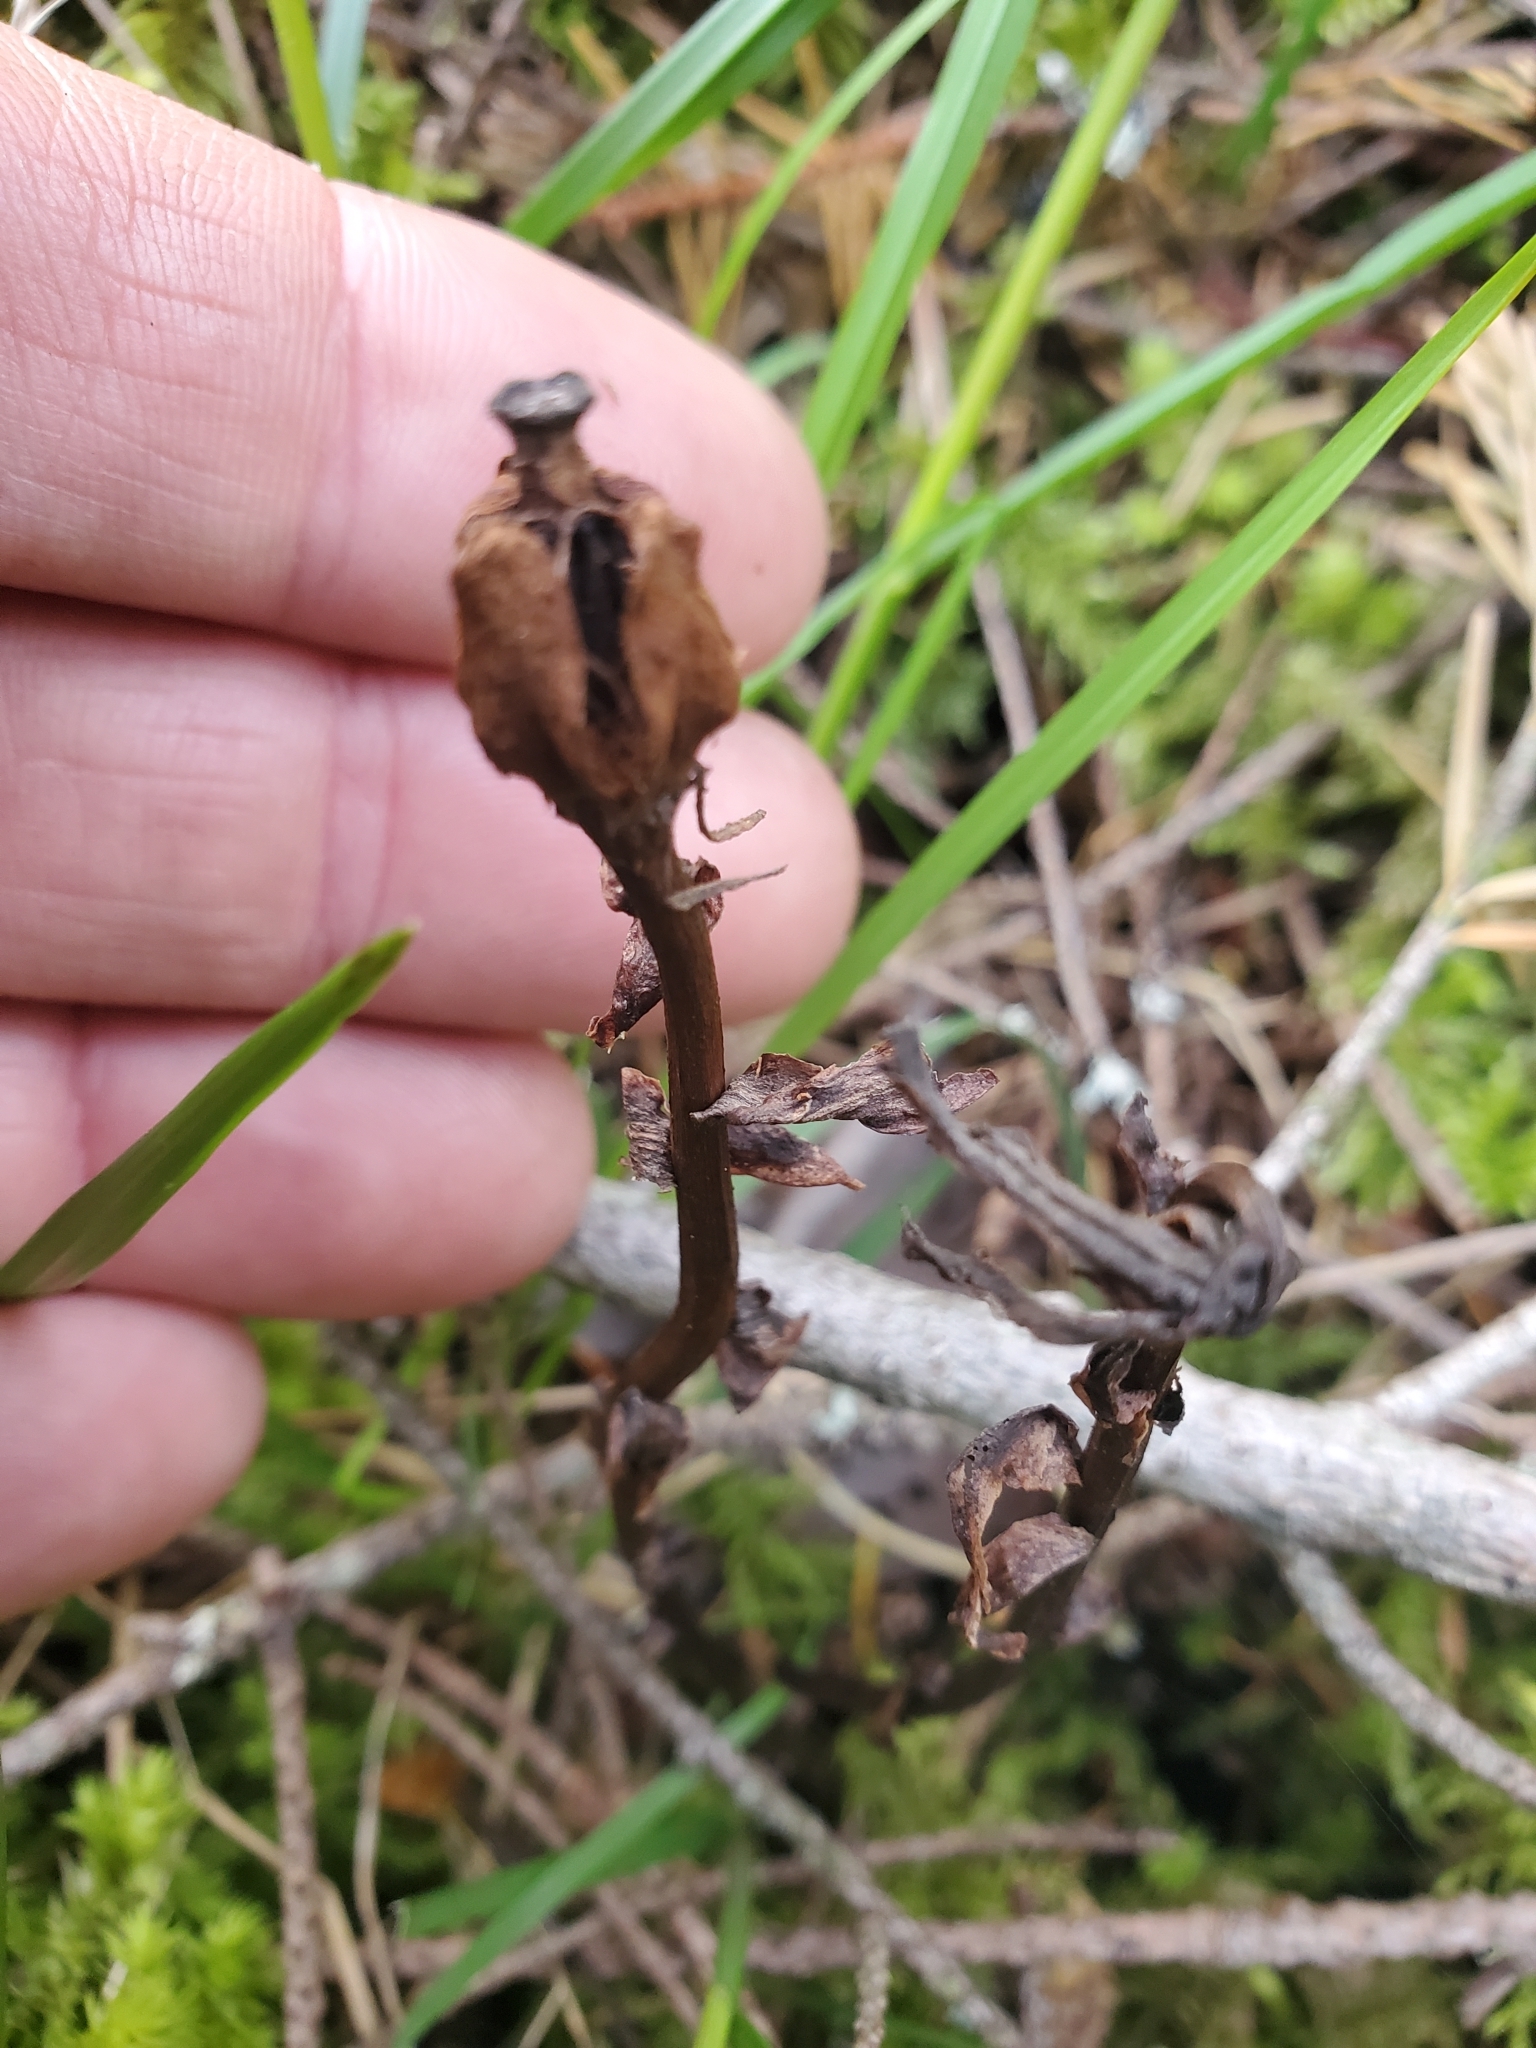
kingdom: Plantae
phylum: Tracheophyta
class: Magnoliopsida
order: Ericales
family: Ericaceae
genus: Monotropa
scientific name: Monotropa uniflora
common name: Convulsion root
